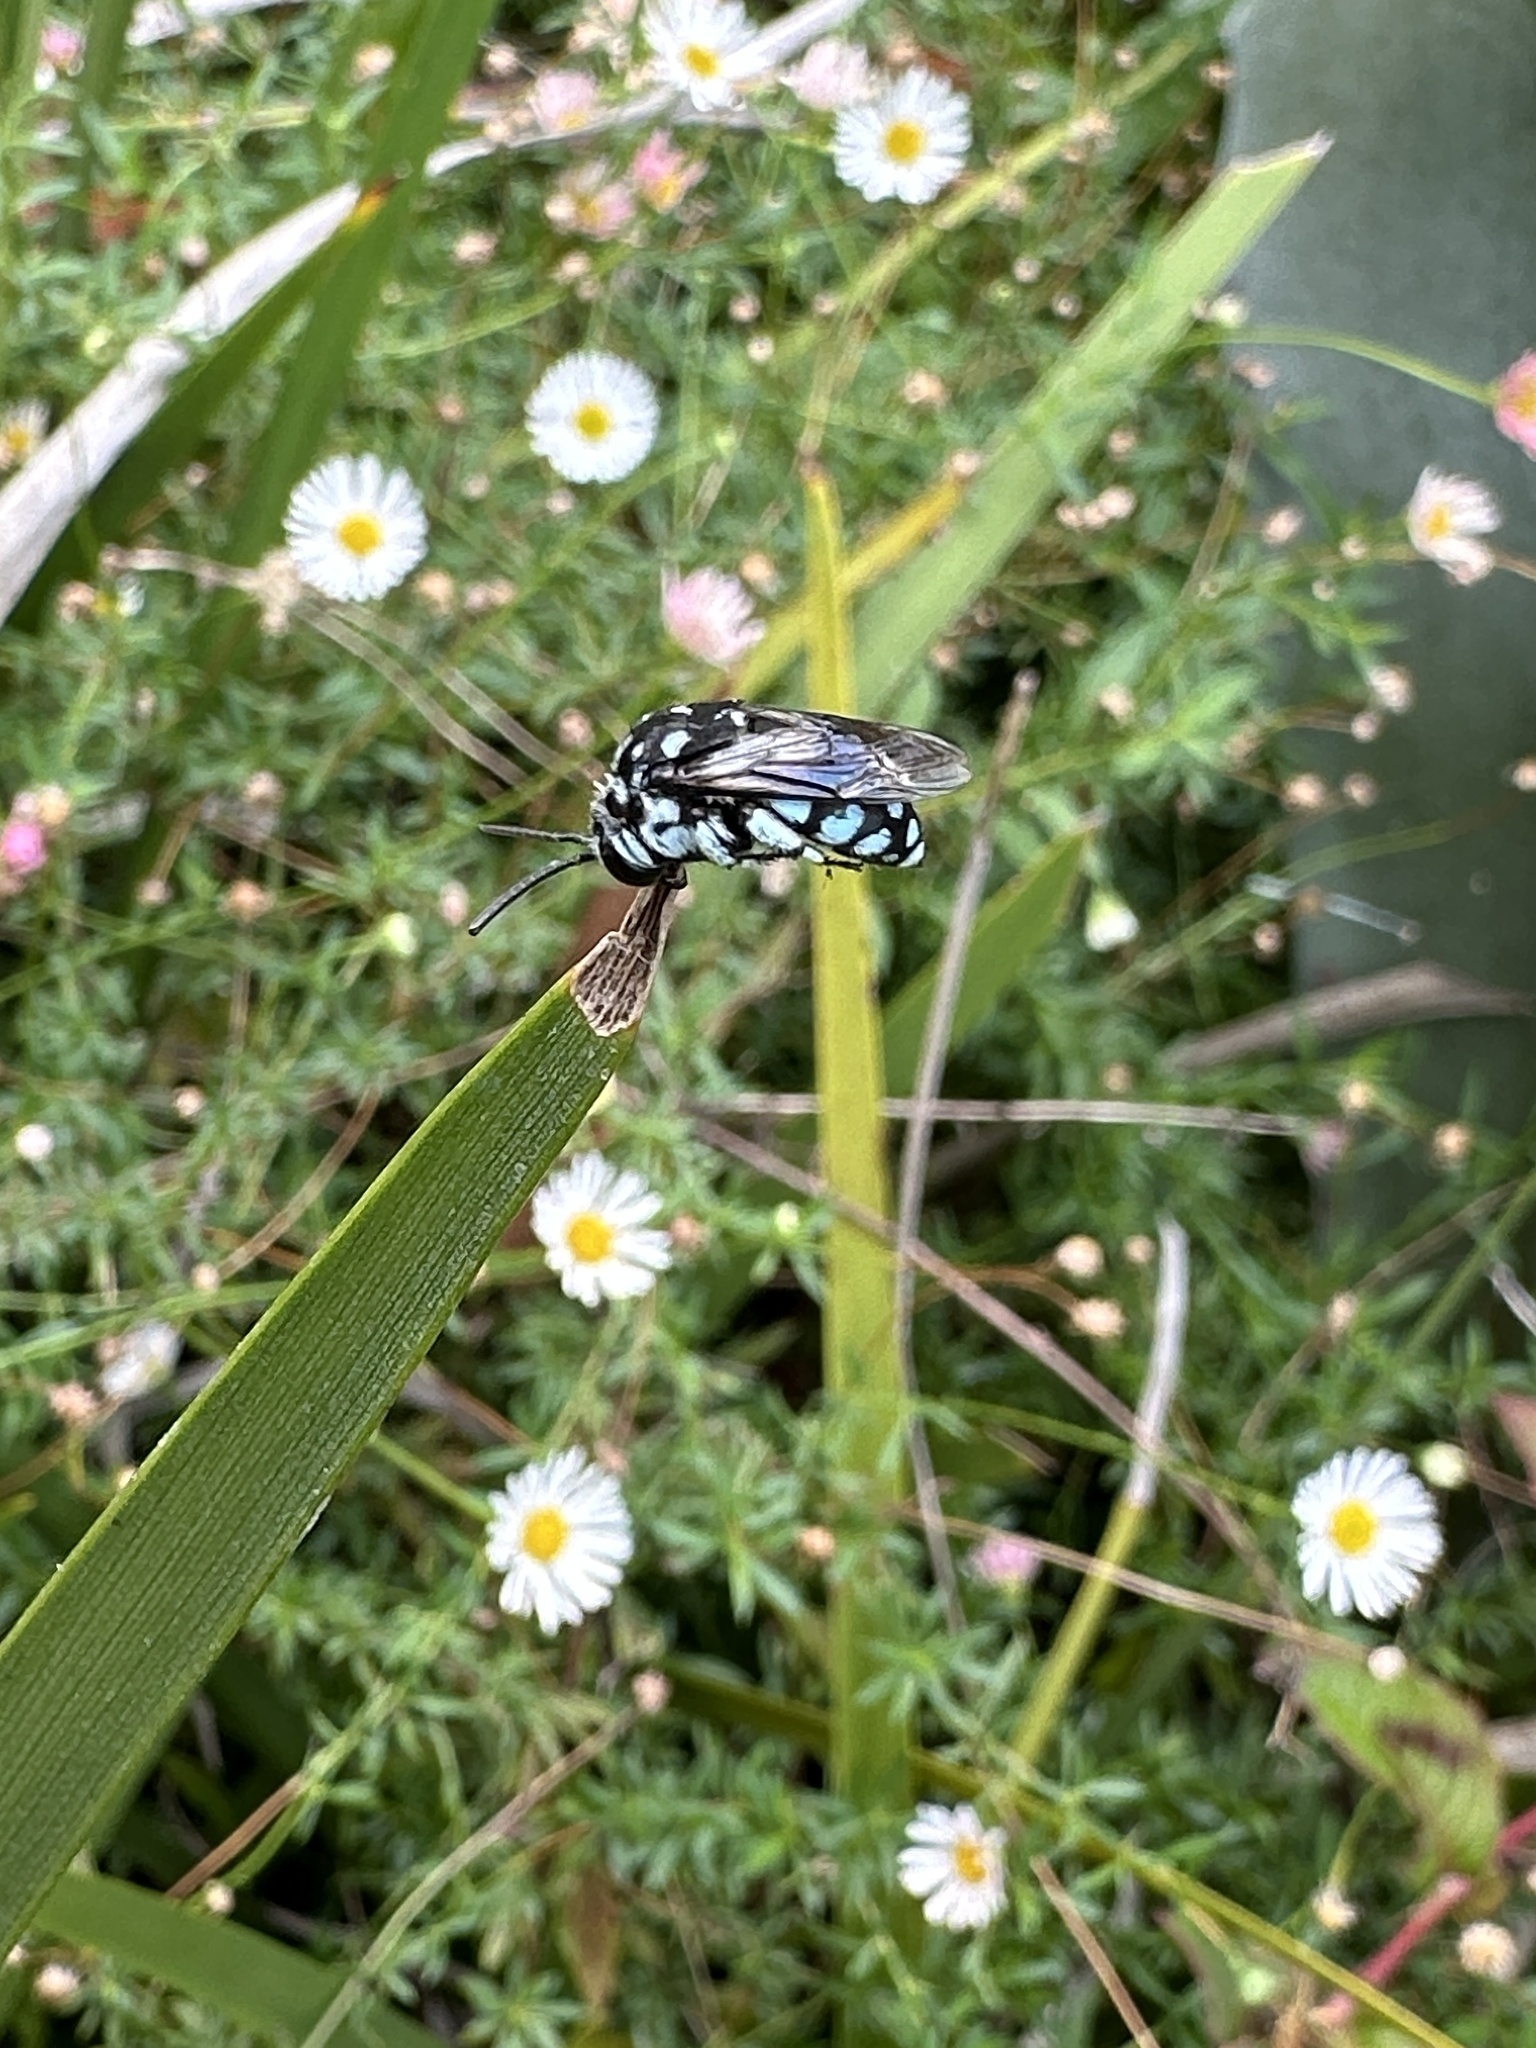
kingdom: Animalia
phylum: Arthropoda
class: Insecta
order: Hymenoptera
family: Apidae
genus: Thyreus
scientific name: Thyreus caeruleopunctatus
